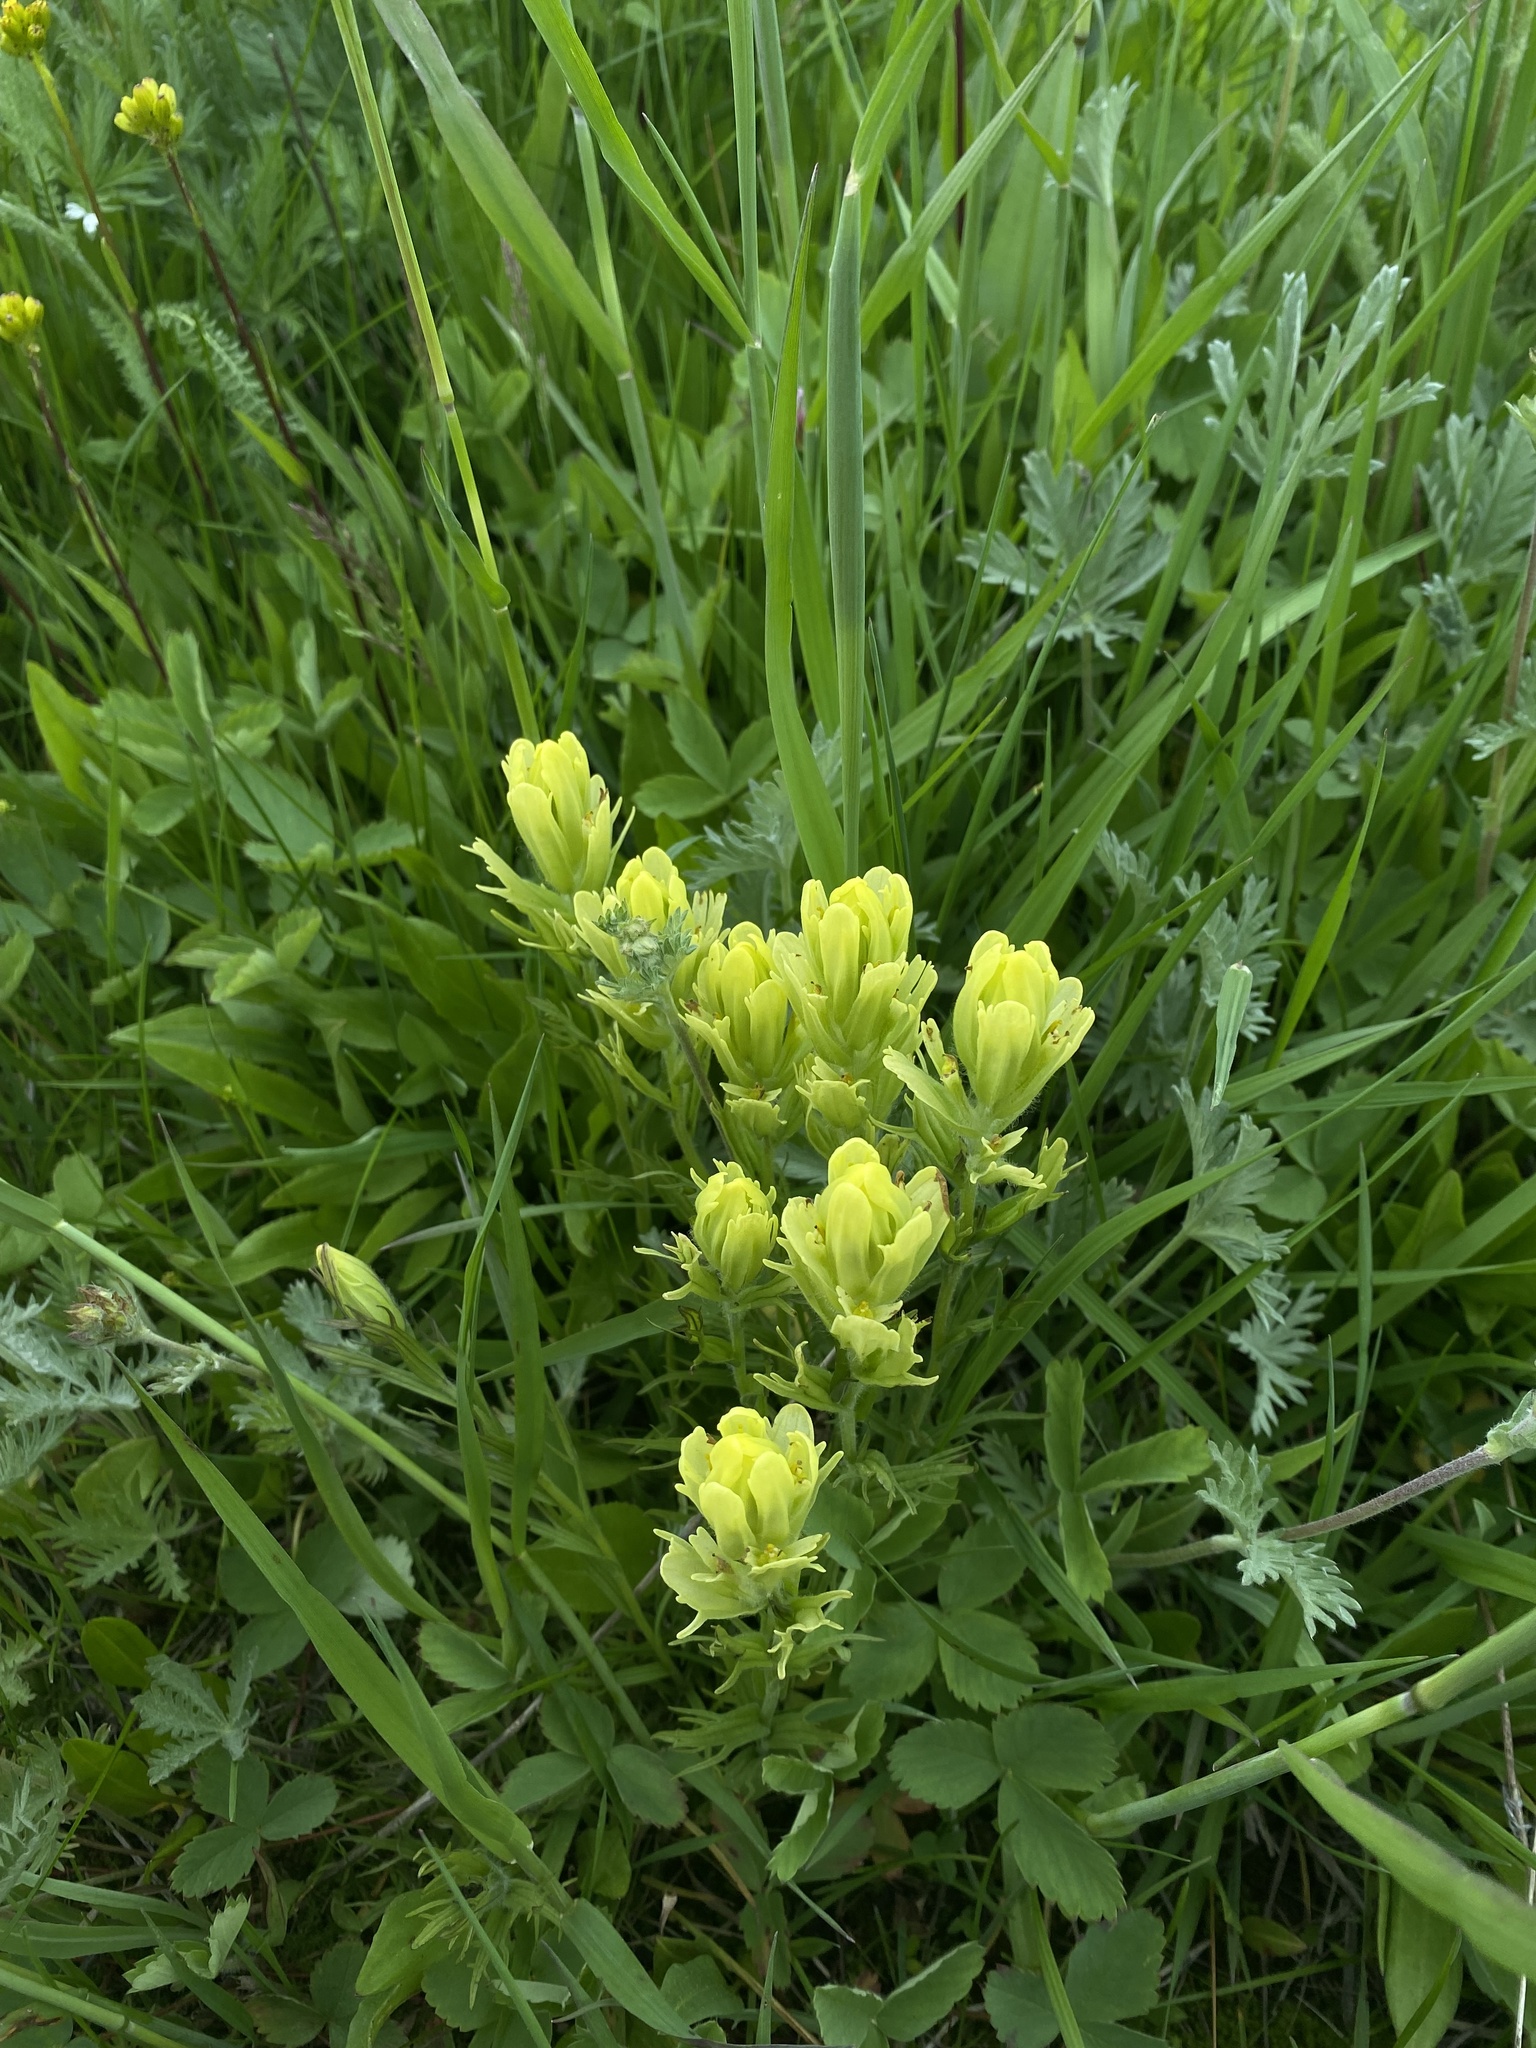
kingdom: Plantae
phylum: Tracheophyta
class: Magnoliopsida
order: Lamiales
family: Orobanchaceae
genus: Castilleja
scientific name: Castilleja cusickii
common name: Cusick's paintbrush
